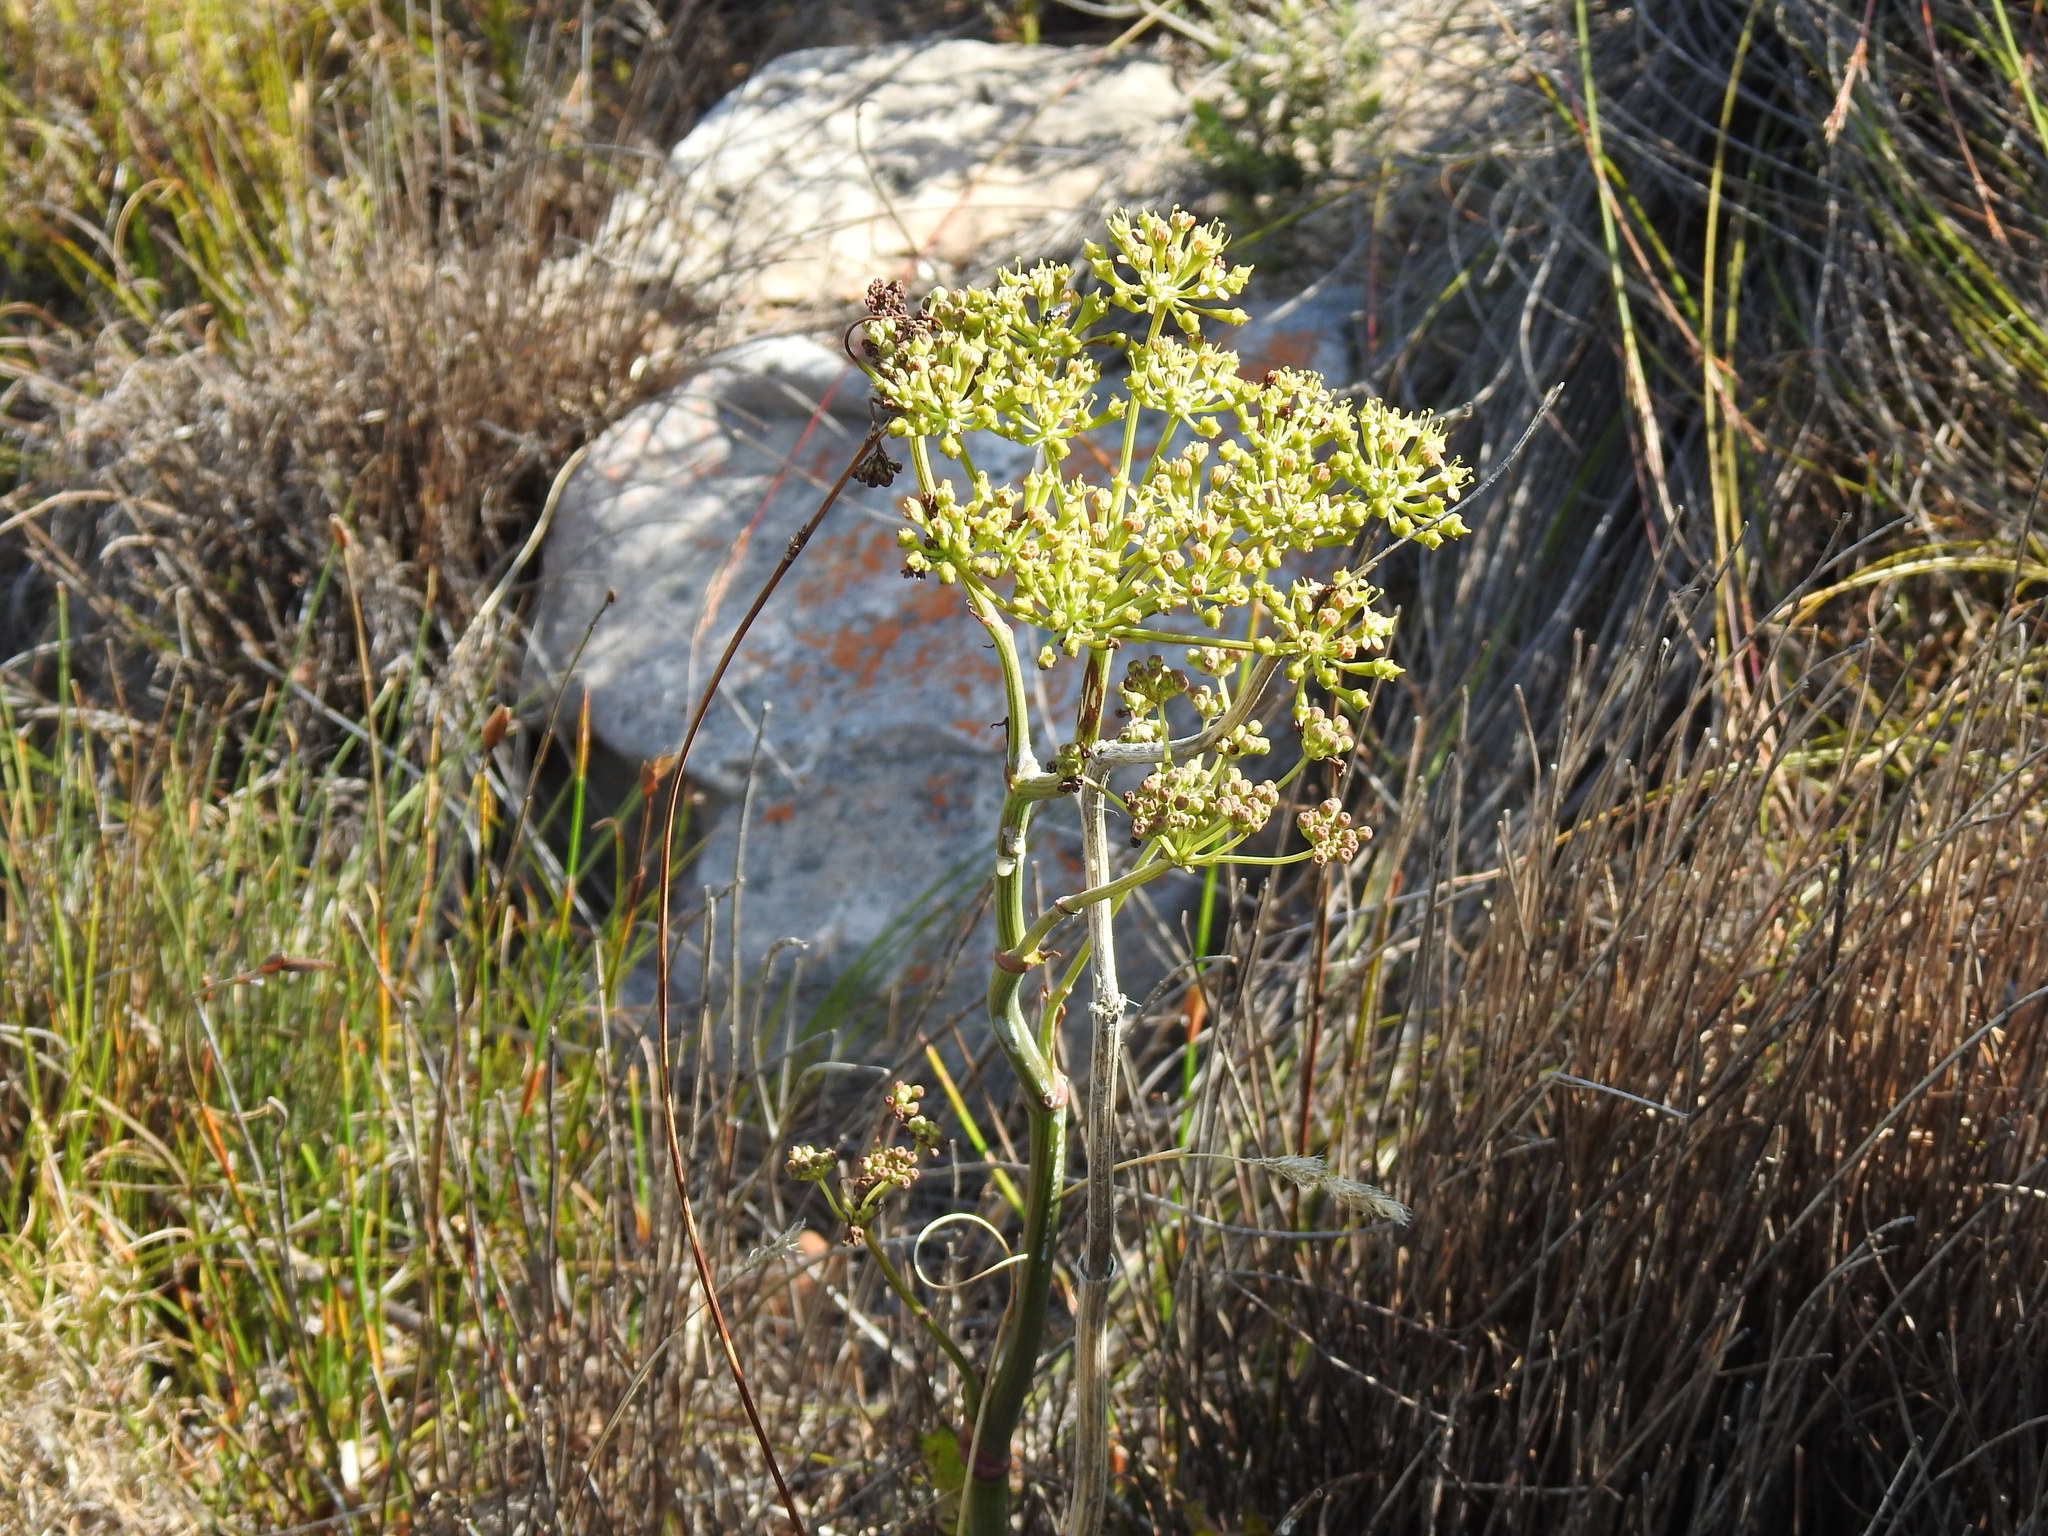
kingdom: Plantae
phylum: Tracheophyta
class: Magnoliopsida
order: Apiales
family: Apiaceae
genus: Lichtensteinia
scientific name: Lichtensteinia lacera
